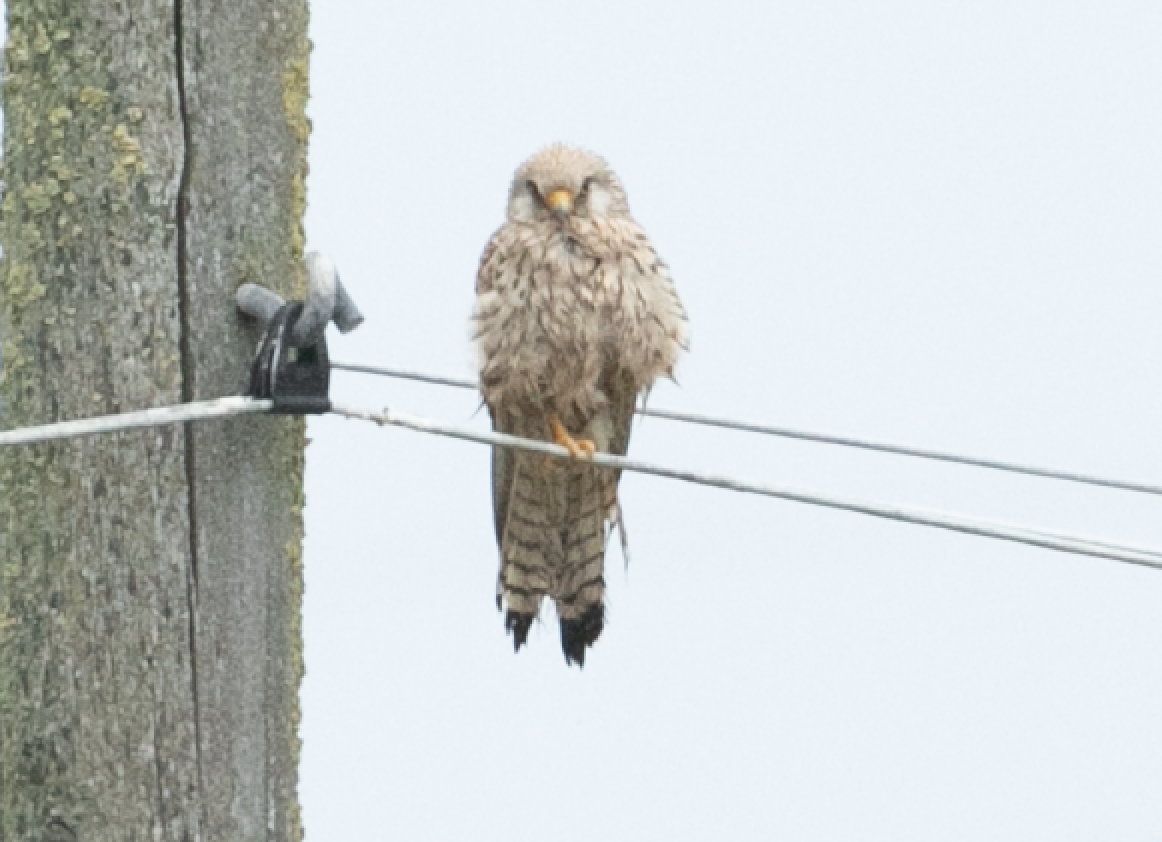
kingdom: Animalia
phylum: Chordata
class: Aves
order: Falconiformes
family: Falconidae
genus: Falco
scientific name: Falco tinnunculus
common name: Common kestrel
